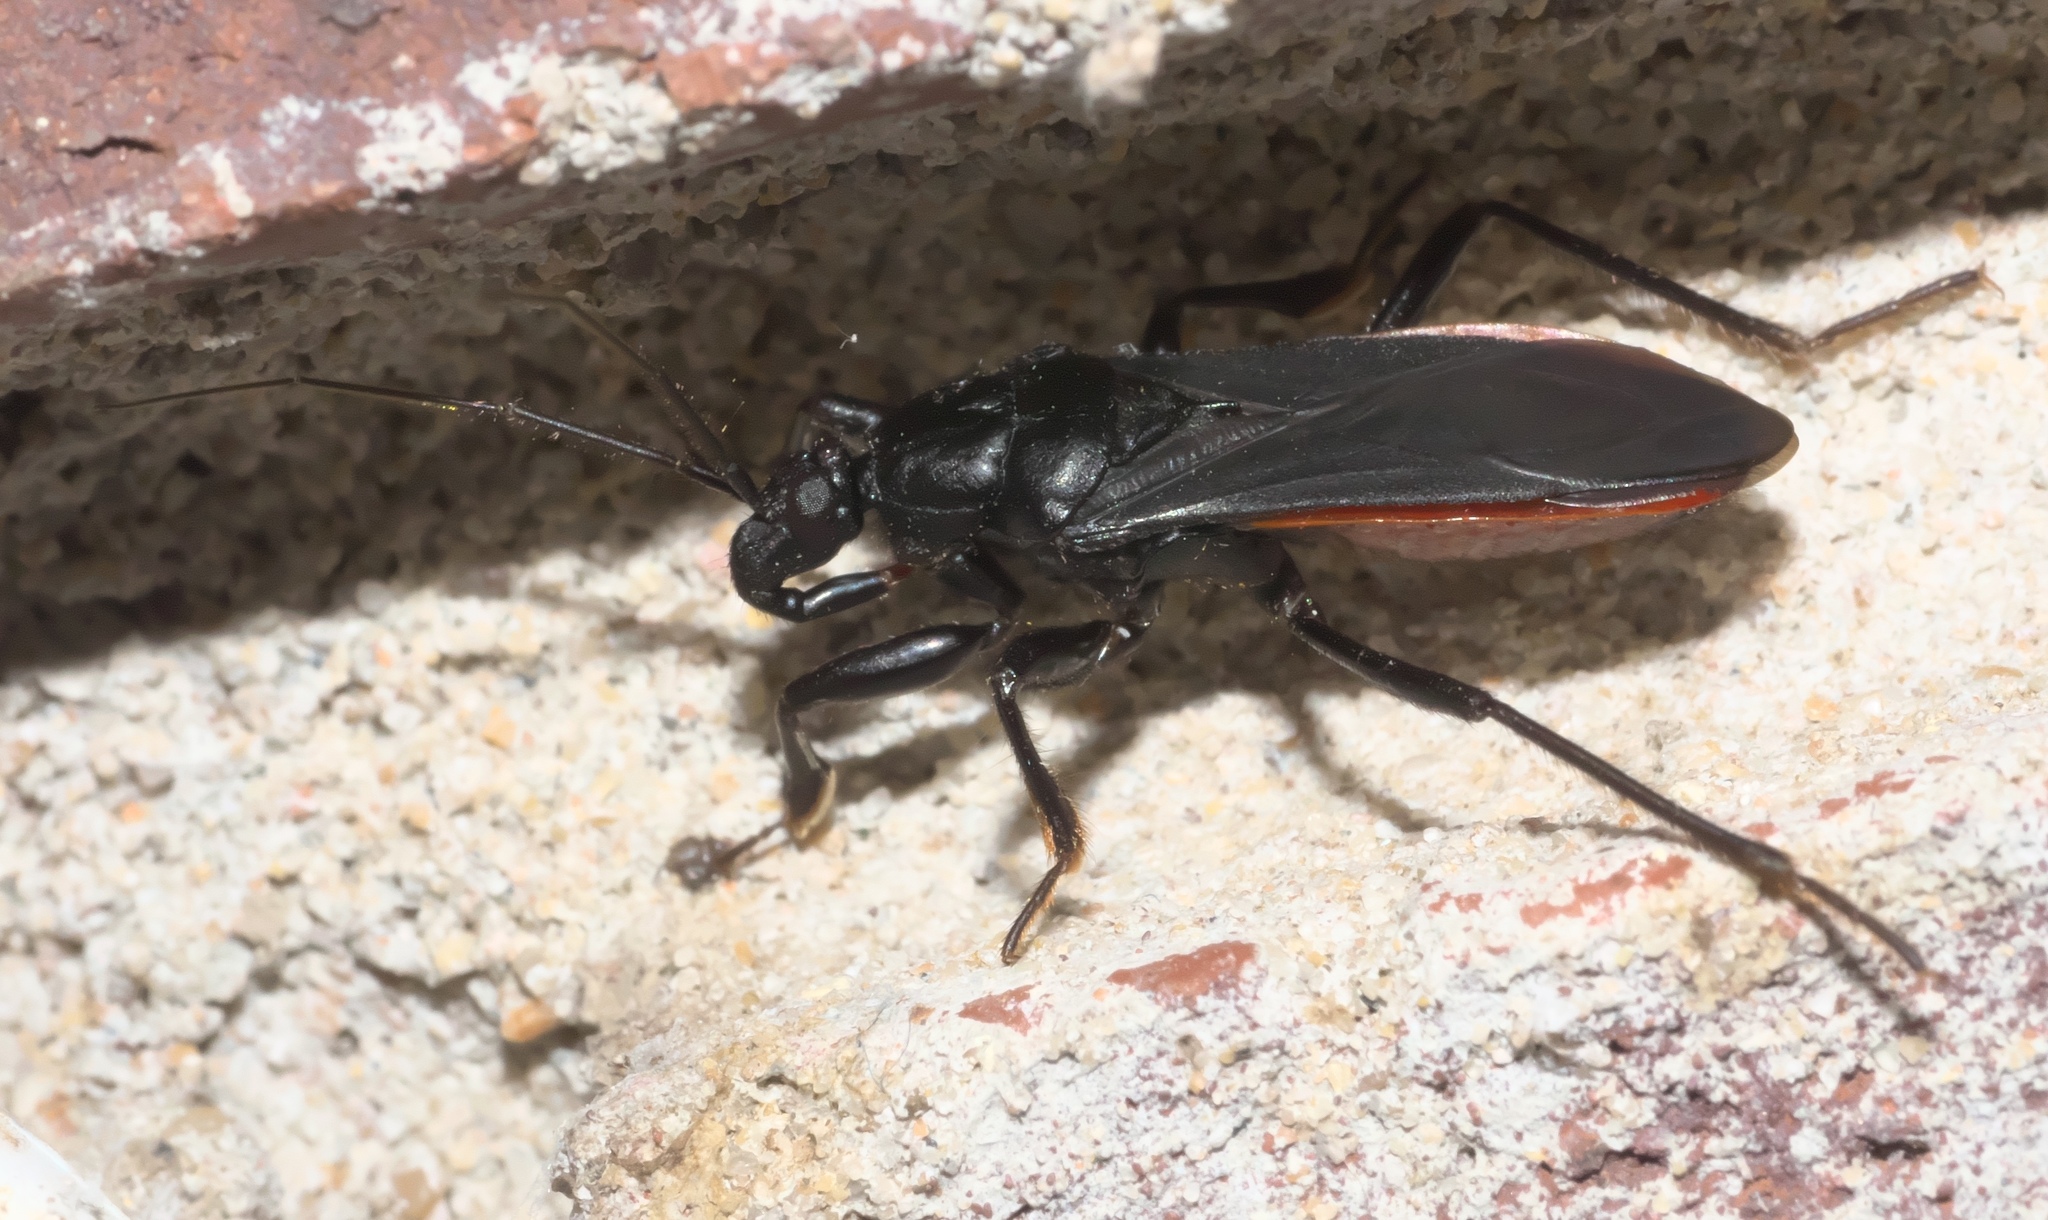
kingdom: Animalia
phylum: Arthropoda
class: Insecta
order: Hemiptera
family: Reduviidae
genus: Melanolestes
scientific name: Melanolestes picipes
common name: Assassin bug
